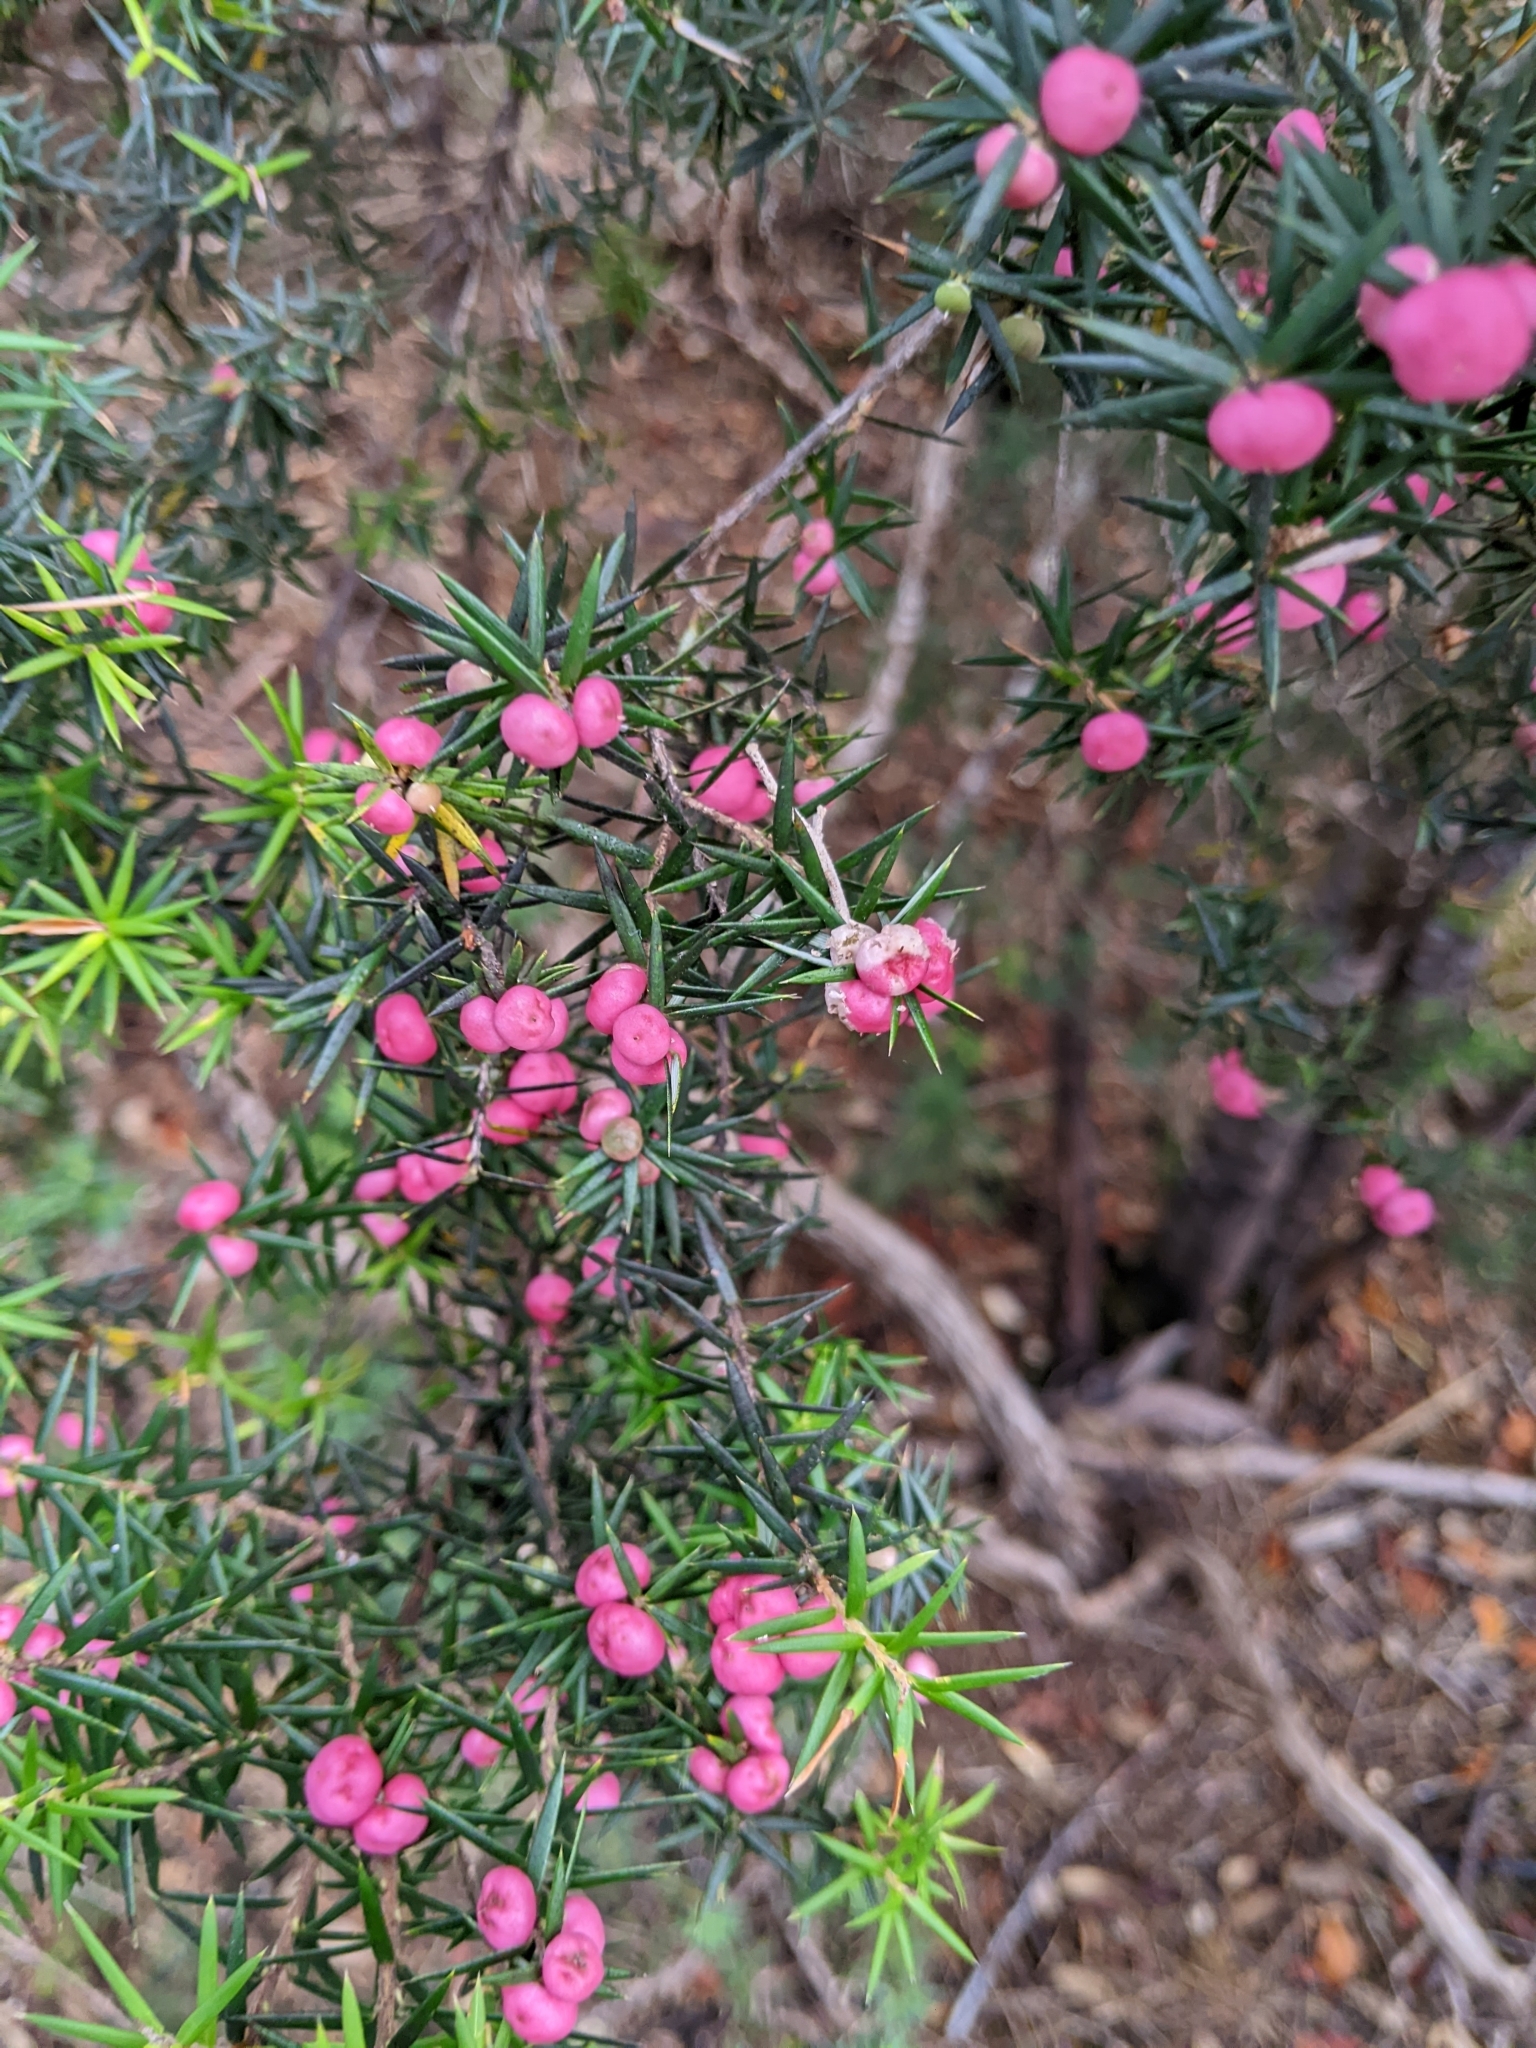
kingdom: Plantae
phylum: Tracheophyta
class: Magnoliopsida
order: Ericales
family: Ericaceae
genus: Leptecophylla
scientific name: Leptecophylla oxycedrus
